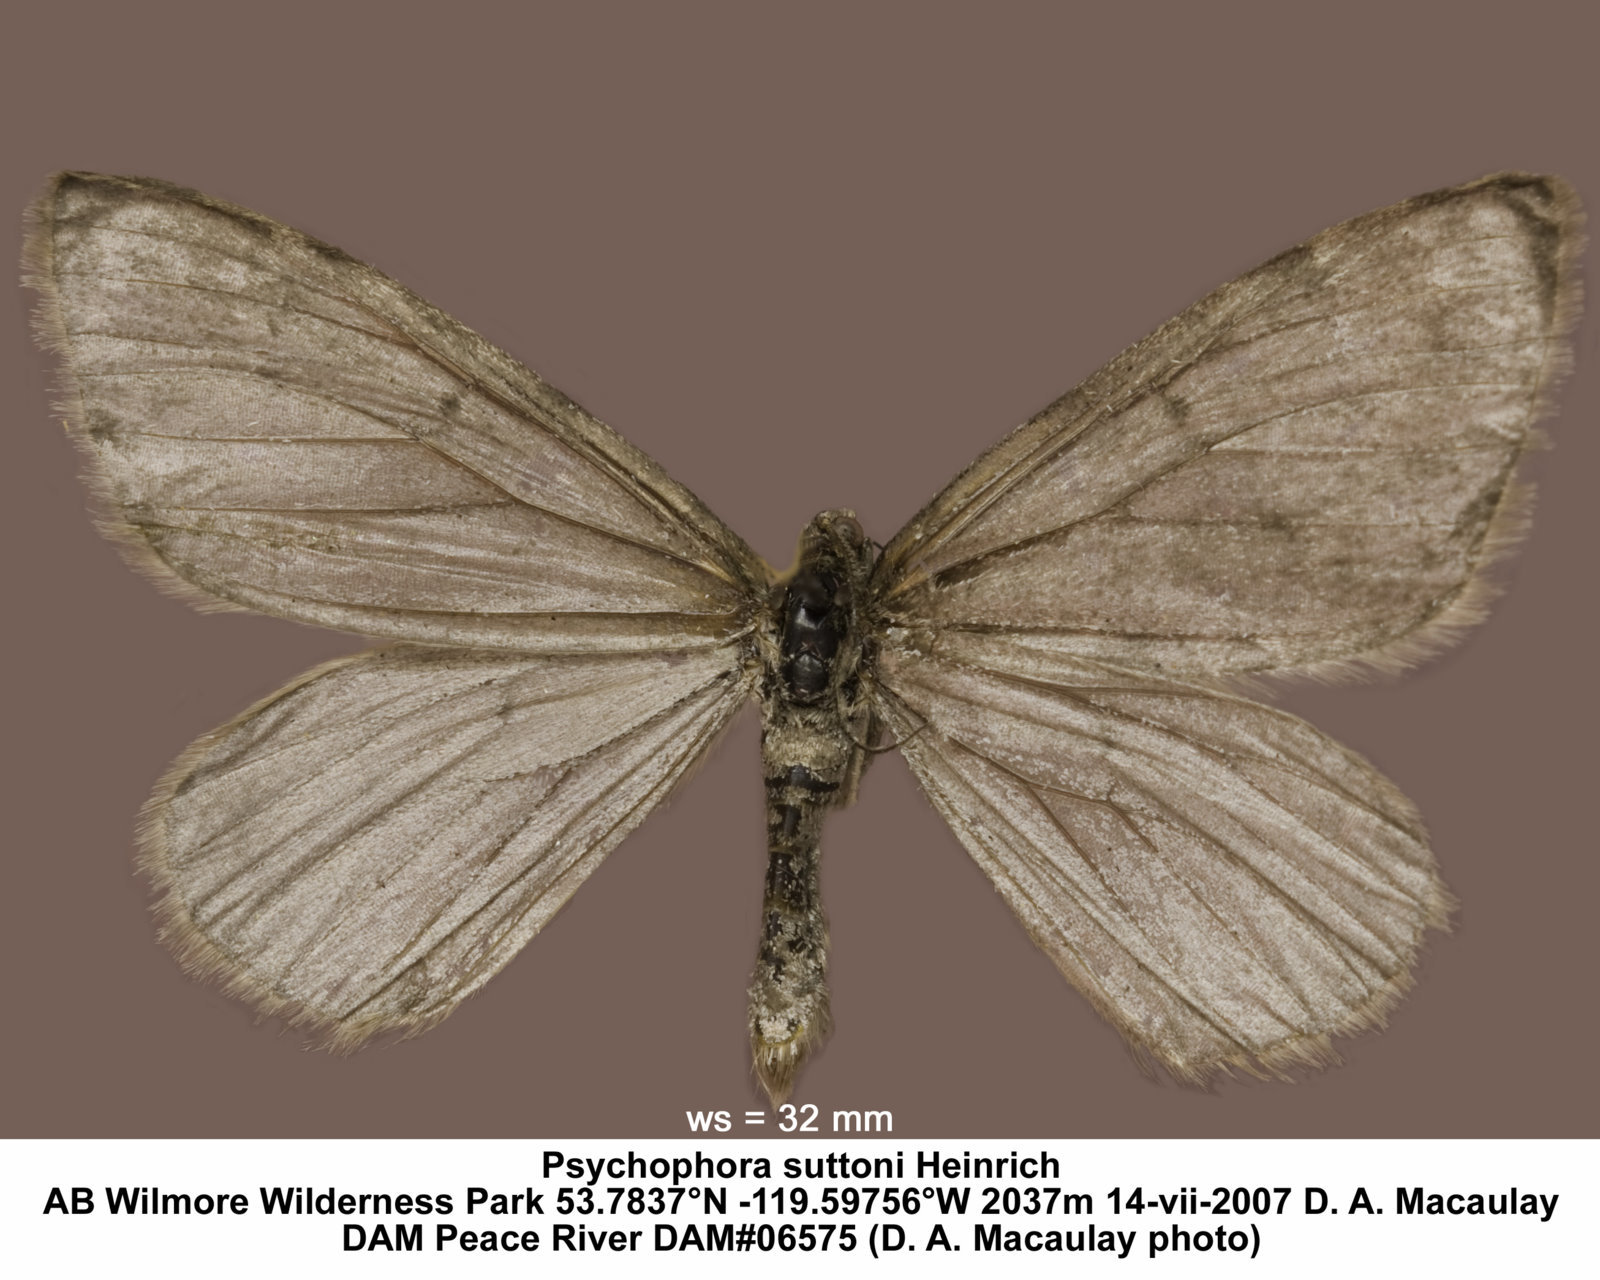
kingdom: Animalia
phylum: Arthropoda
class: Insecta
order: Lepidoptera
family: Geometridae
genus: Psychophora
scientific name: Psychophora suttoni
